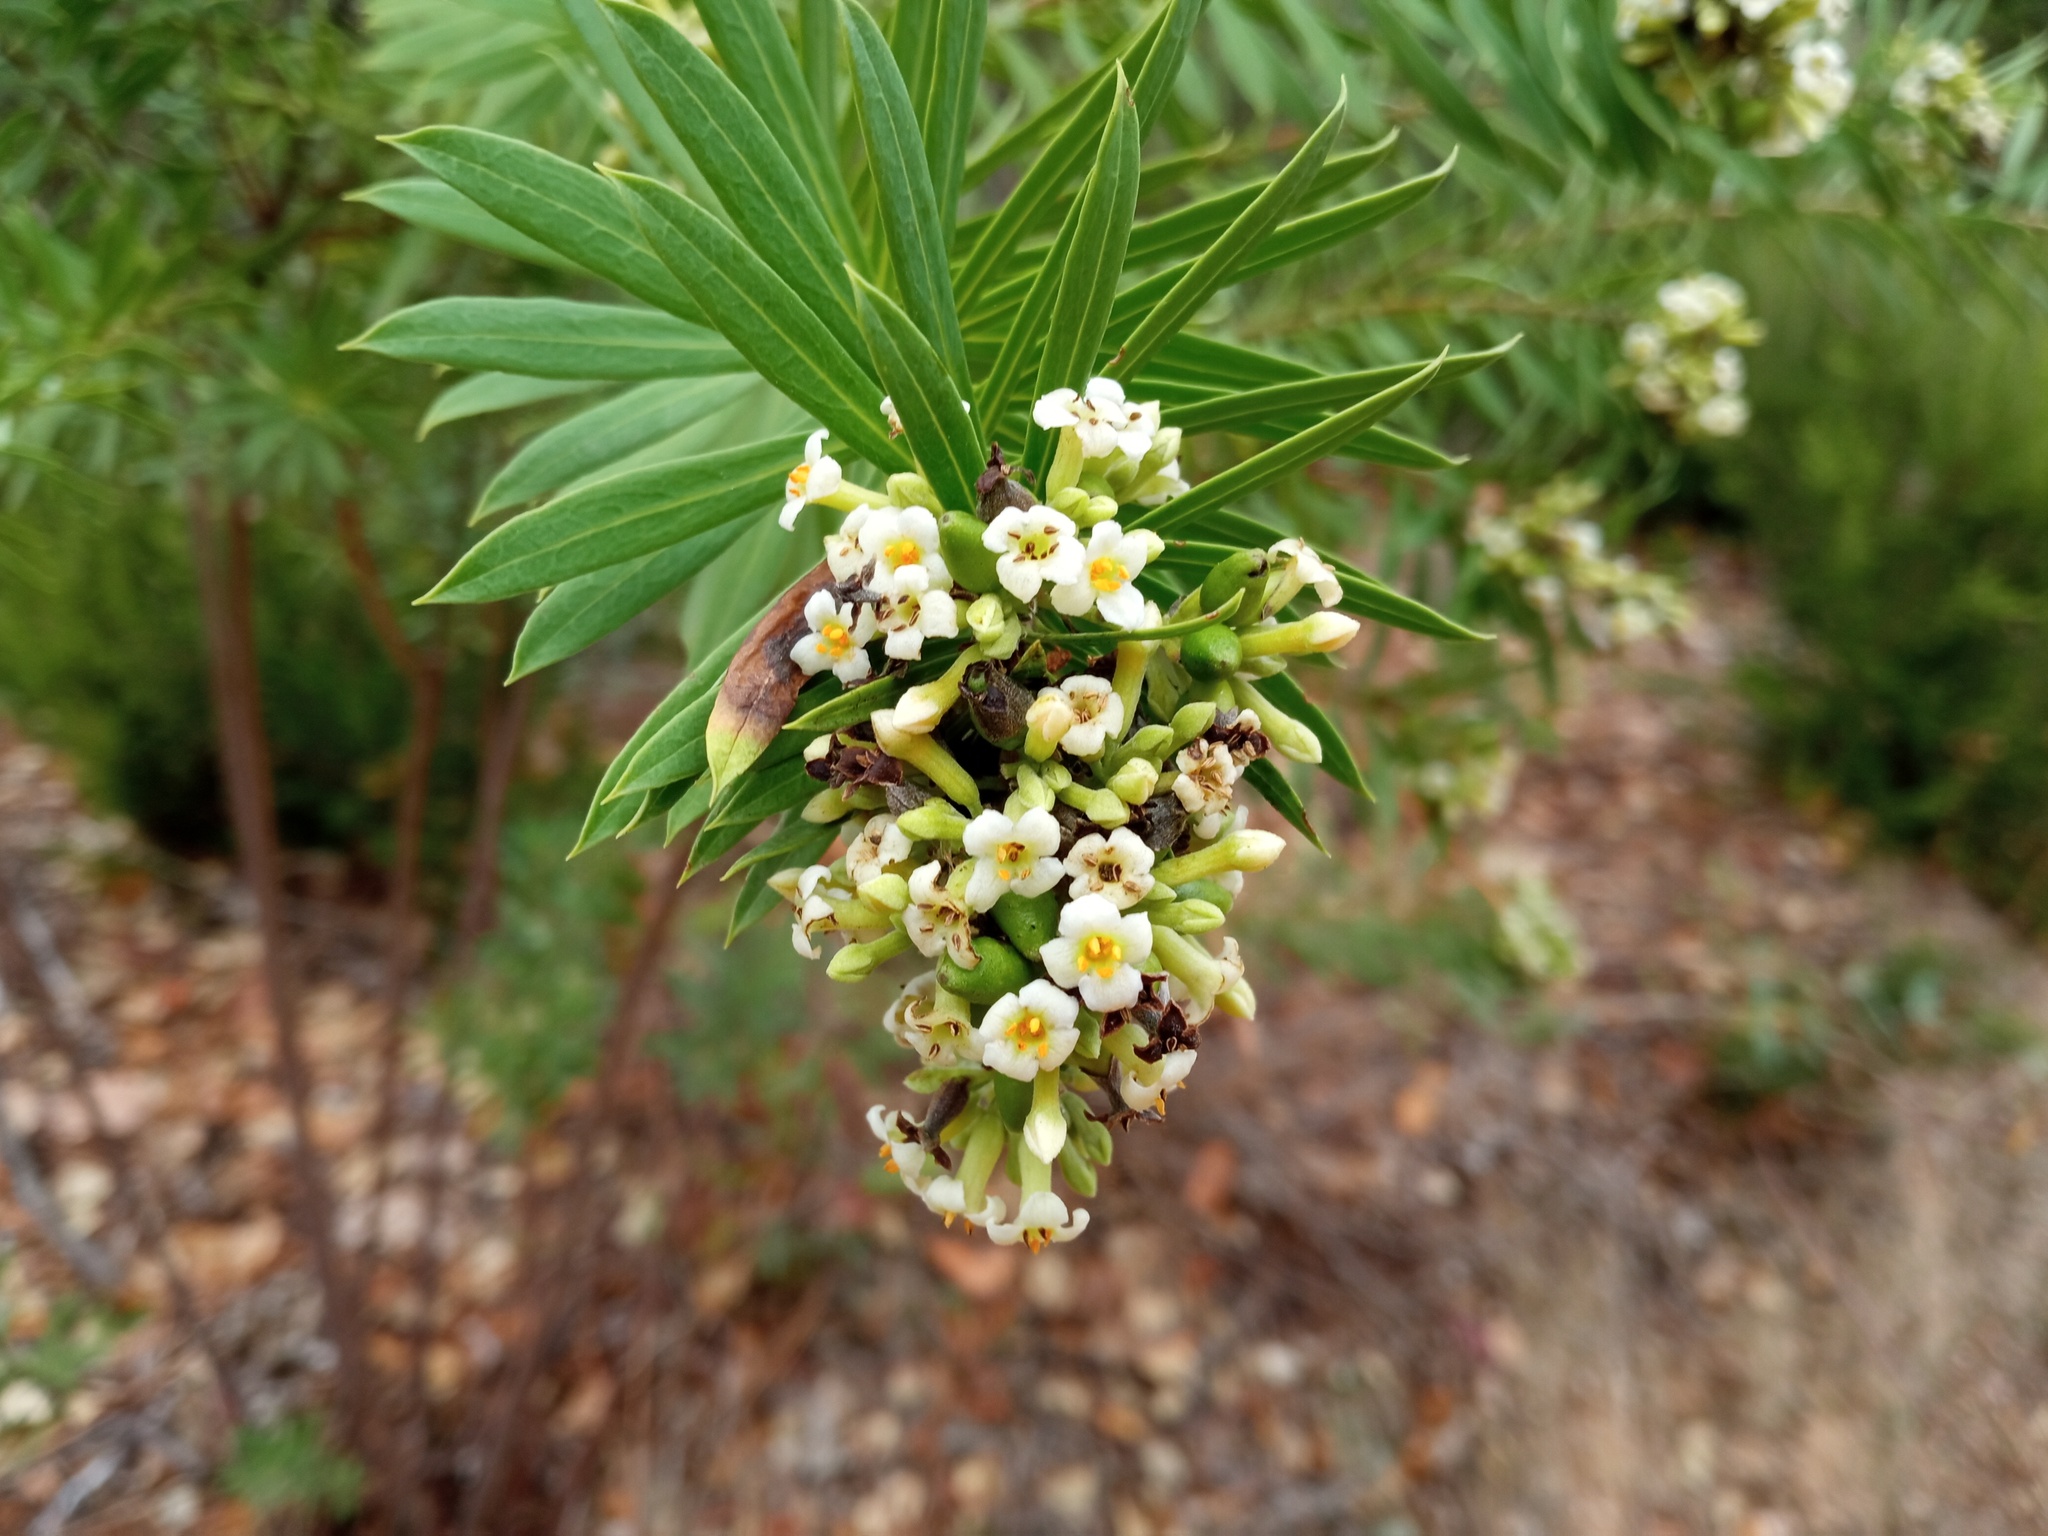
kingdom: Plantae
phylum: Tracheophyta
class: Magnoliopsida
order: Malvales
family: Thymelaeaceae
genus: Daphne
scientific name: Daphne gnidium
